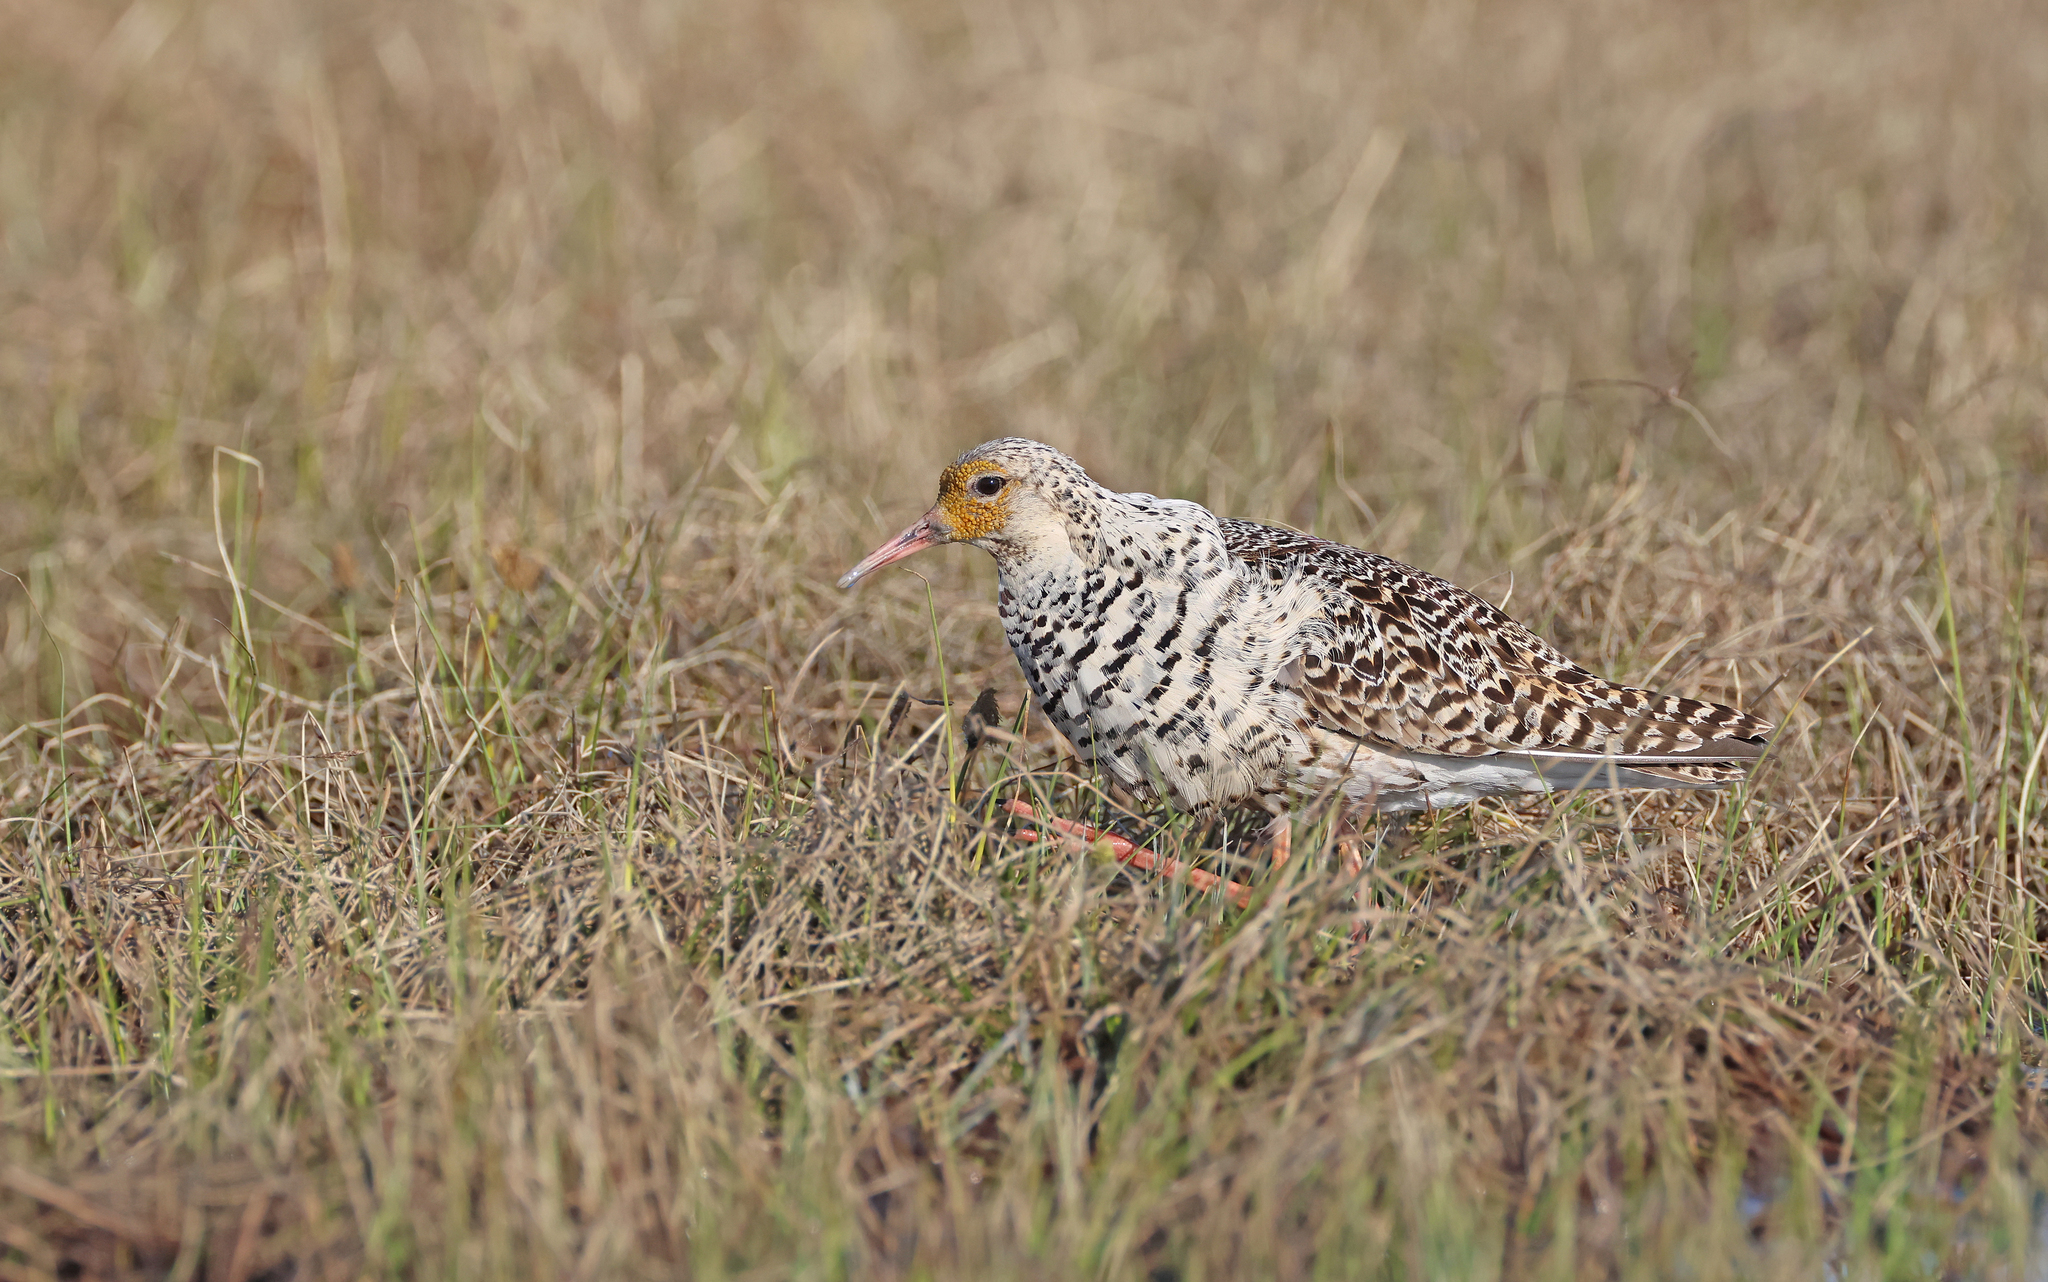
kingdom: Animalia
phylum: Chordata
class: Aves
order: Charadriiformes
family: Scolopacidae
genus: Calidris
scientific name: Calidris pugnax
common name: Ruff
